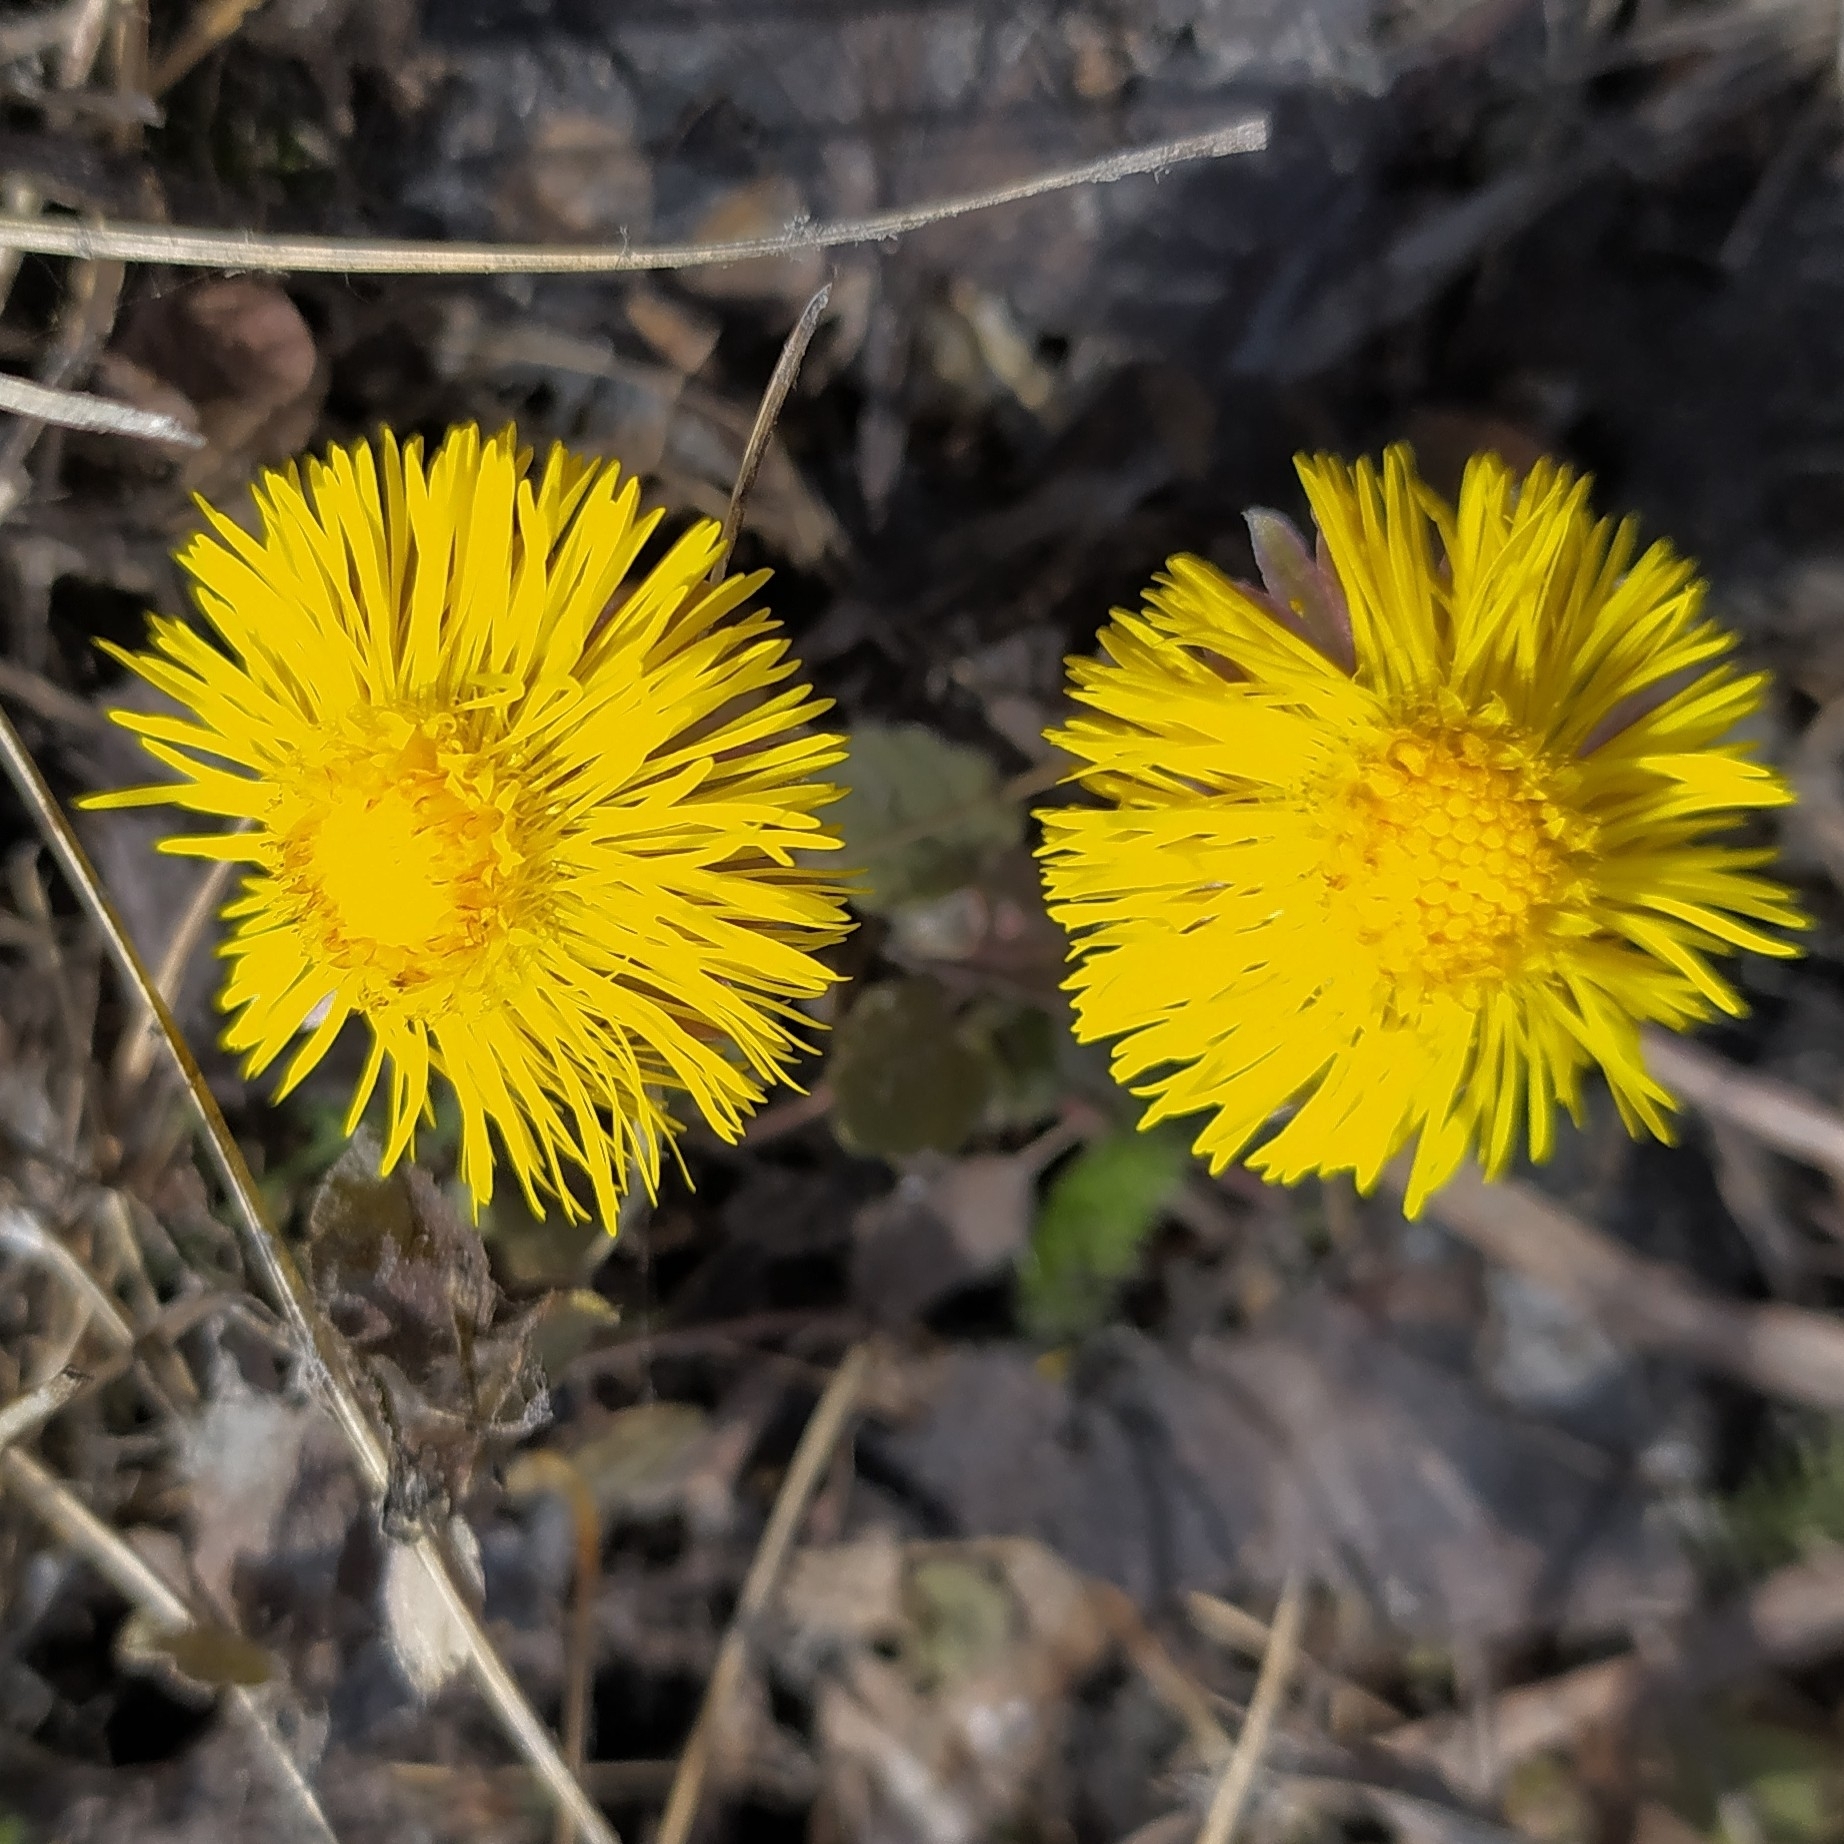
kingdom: Plantae
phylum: Tracheophyta
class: Magnoliopsida
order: Asterales
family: Asteraceae
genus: Tussilago
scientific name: Tussilago farfara
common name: Coltsfoot
